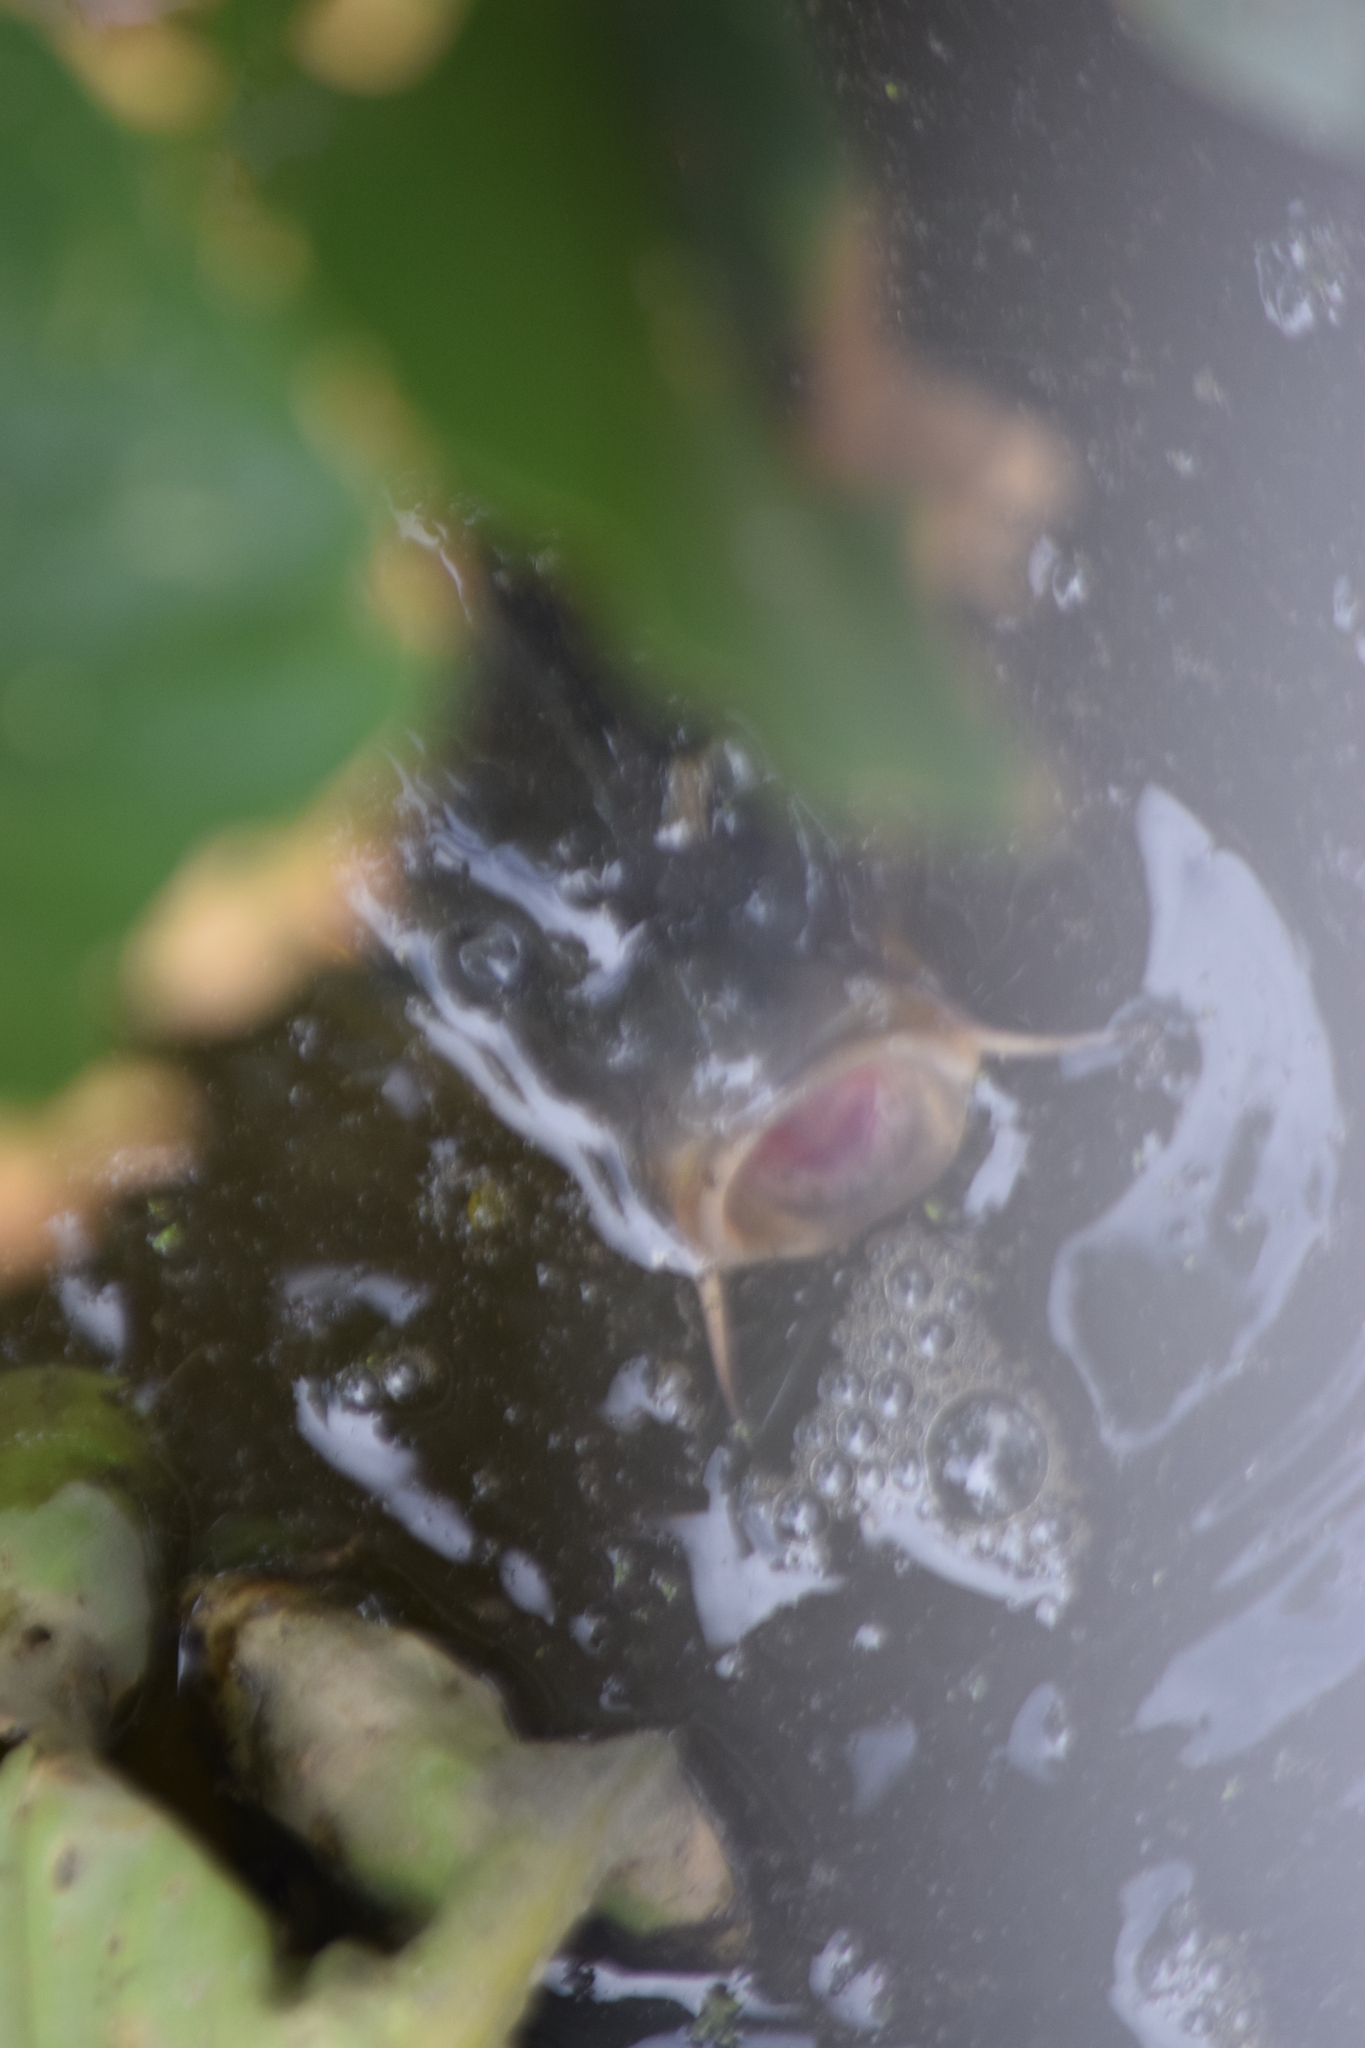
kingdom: Animalia
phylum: Chordata
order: Cypriniformes
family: Cyprinidae
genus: Cyprinus
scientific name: Cyprinus carpio
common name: Common carp
